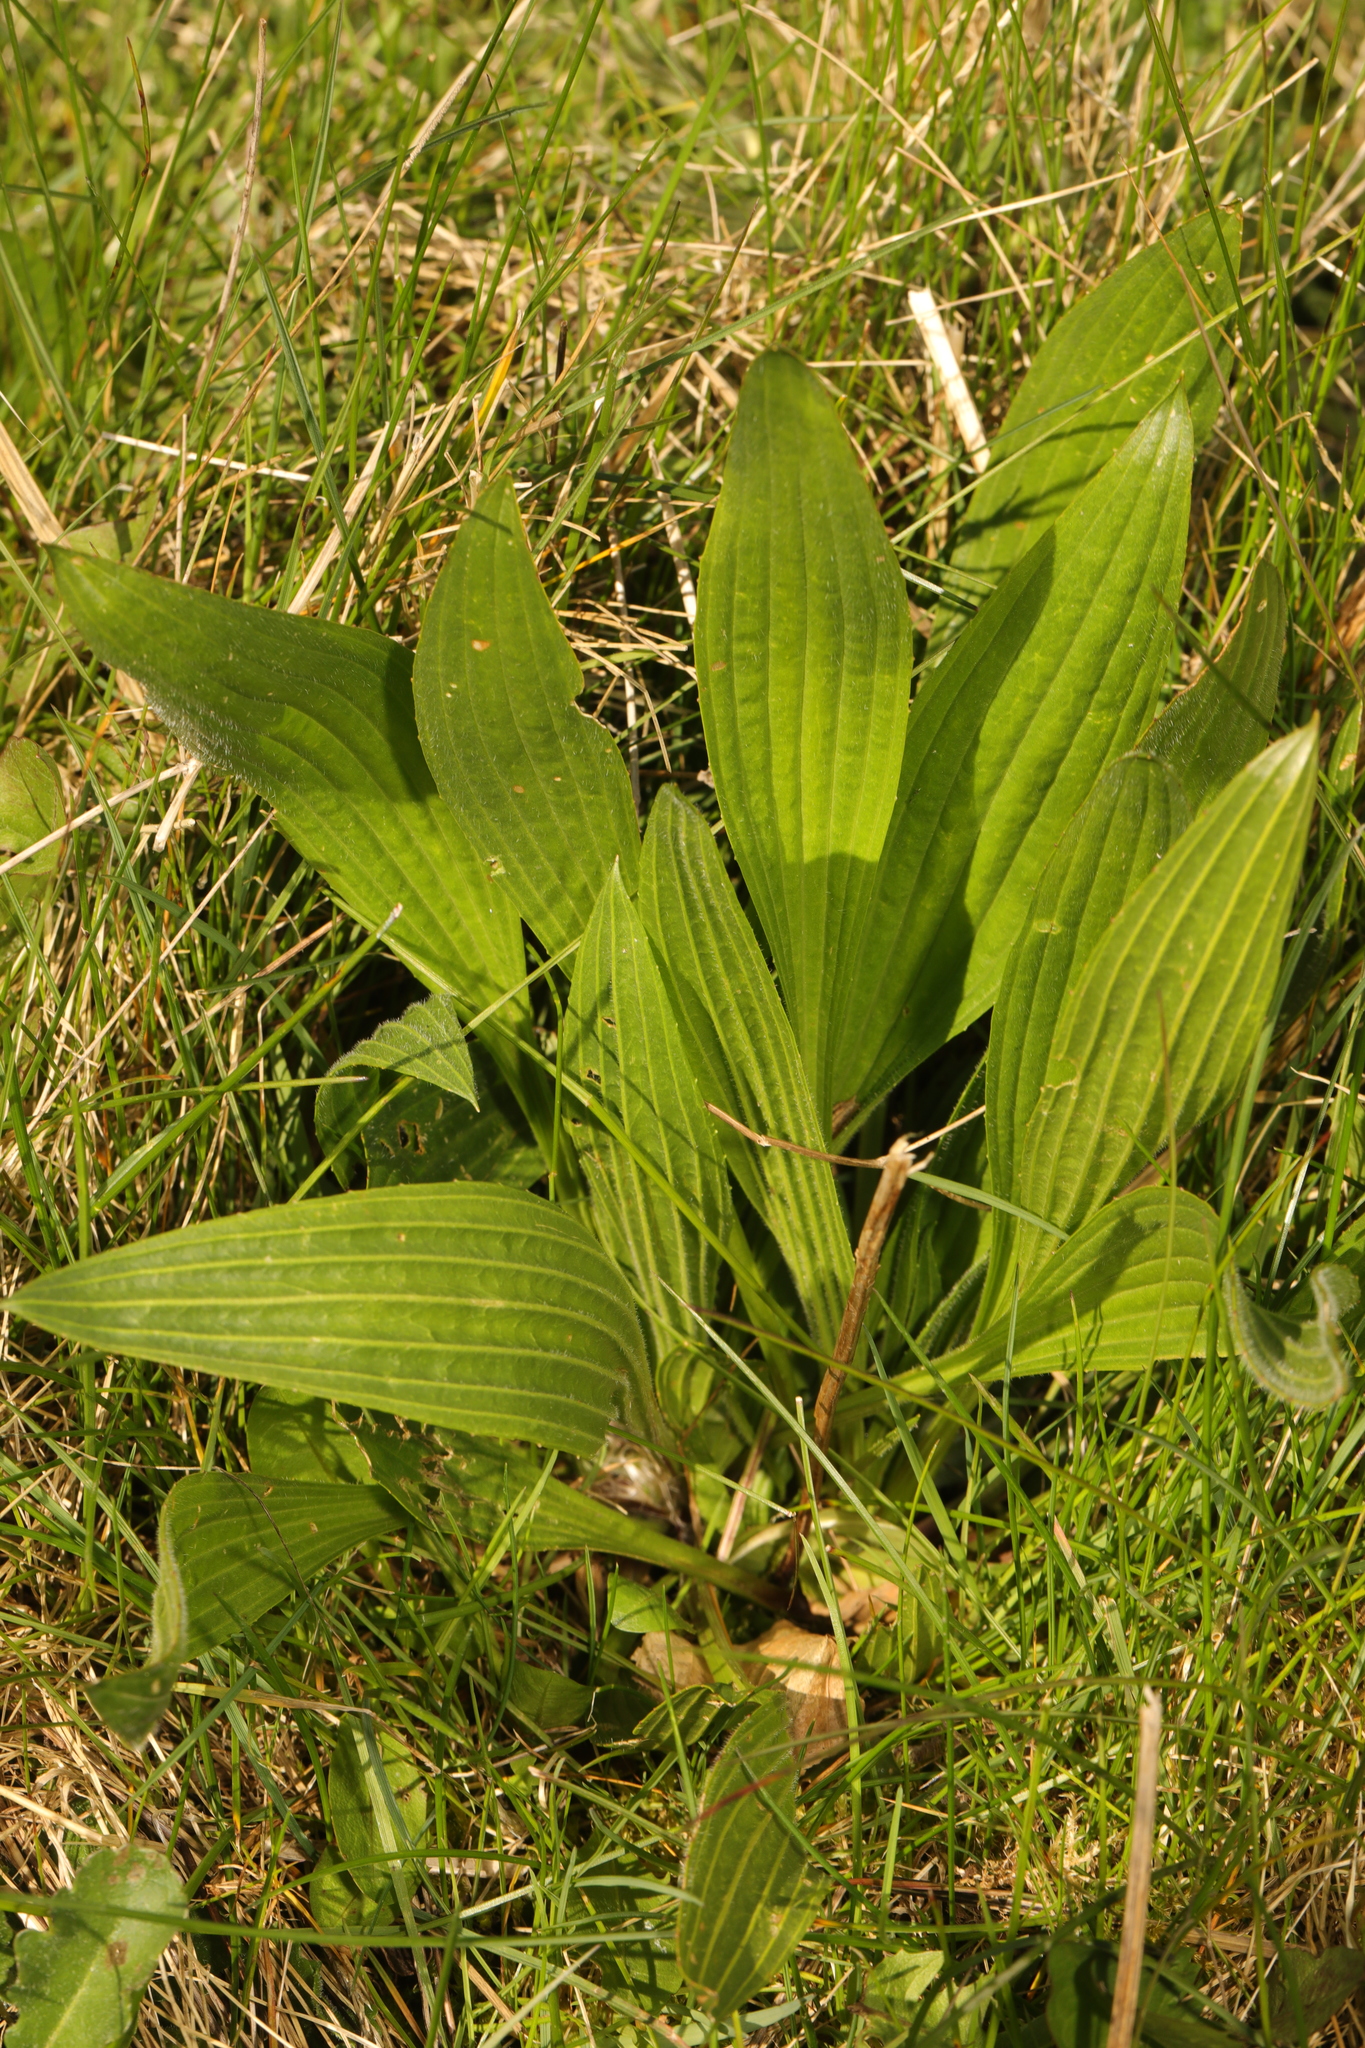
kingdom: Plantae
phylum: Tracheophyta
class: Magnoliopsida
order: Lamiales
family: Plantaginaceae
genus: Plantago
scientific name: Plantago lanceolata
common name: Ribwort plantain
